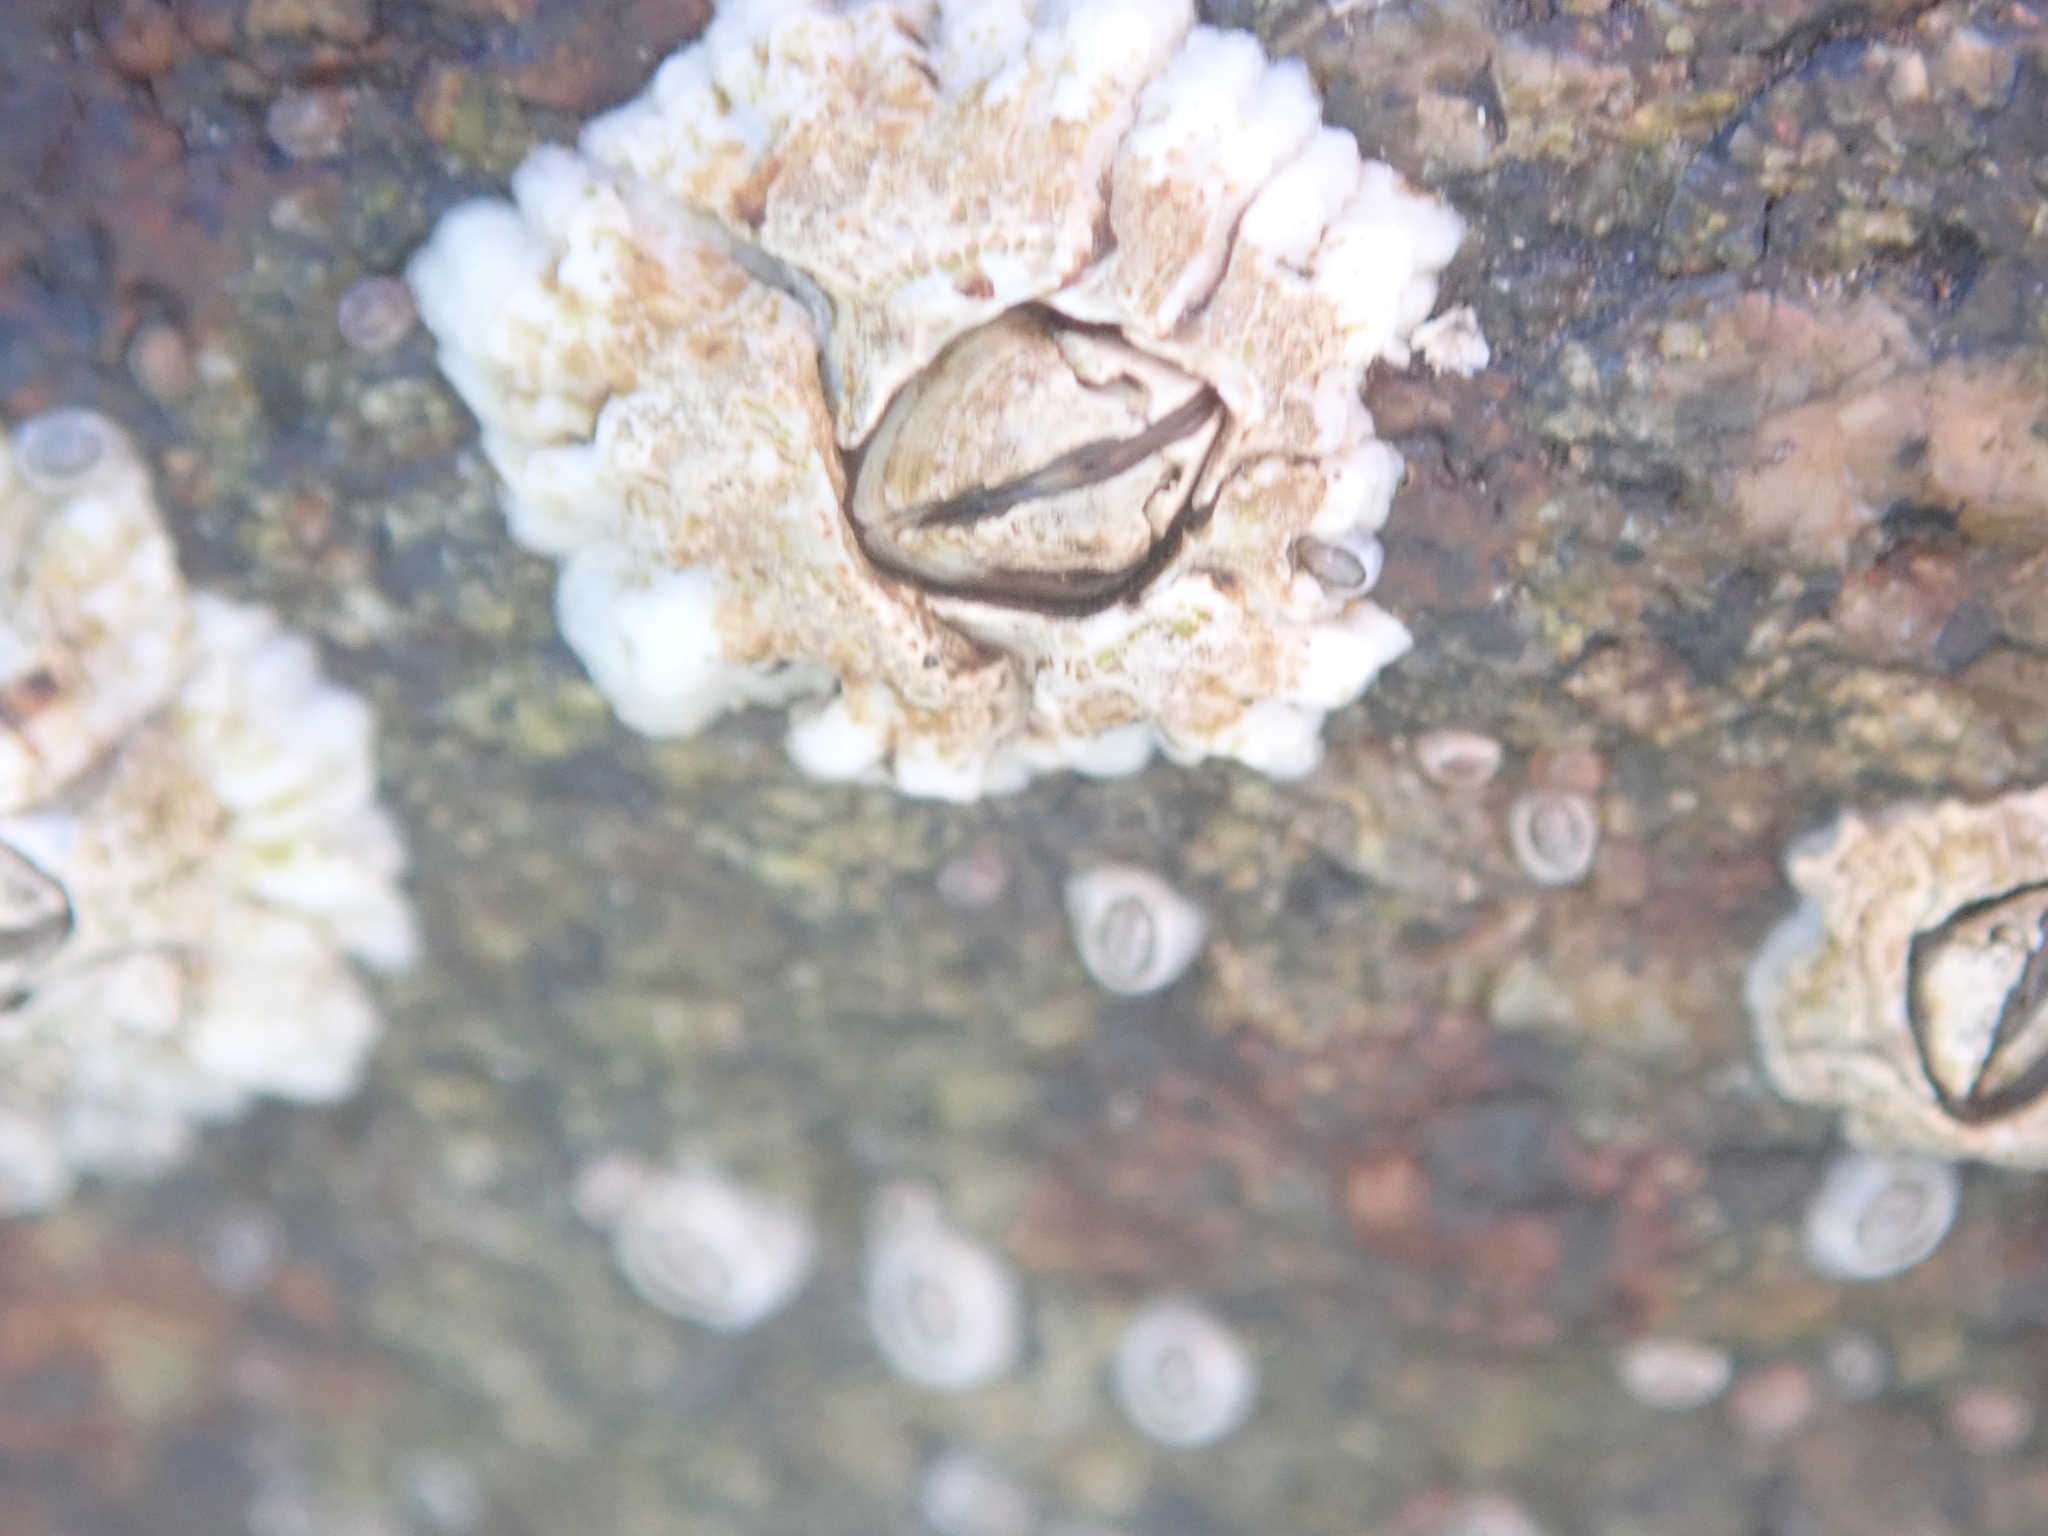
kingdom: Animalia
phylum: Arthropoda
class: Maxillopoda
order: Sessilia
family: Archaeobalanidae
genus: Semibalanus
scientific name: Semibalanus balanoides
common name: Acorn barnacle
